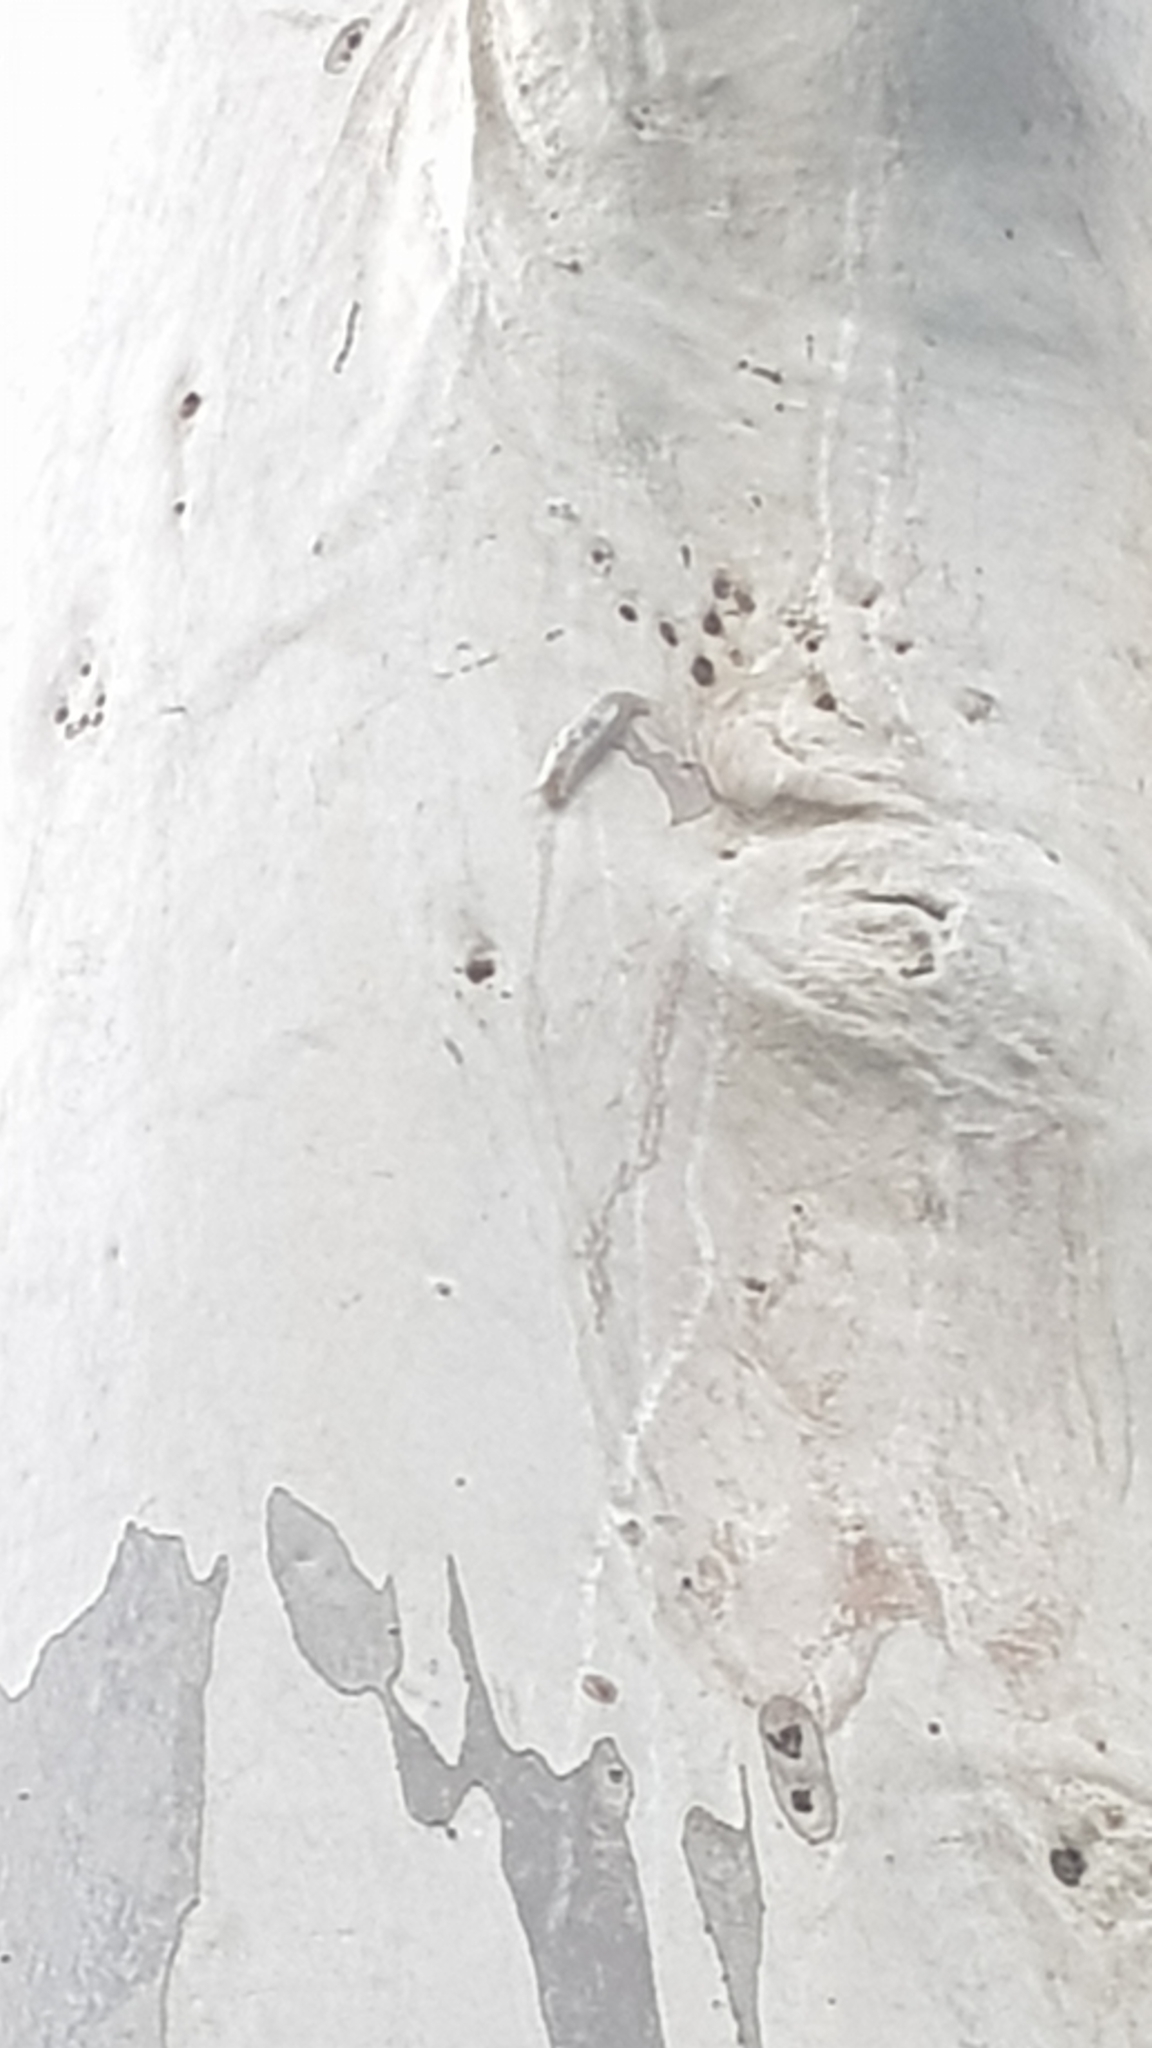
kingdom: Animalia
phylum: Mollusca
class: Gastropoda
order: Stylommatophora
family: Athoracophoridae
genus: Triboniophorus
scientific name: Triboniophorus graeffei
